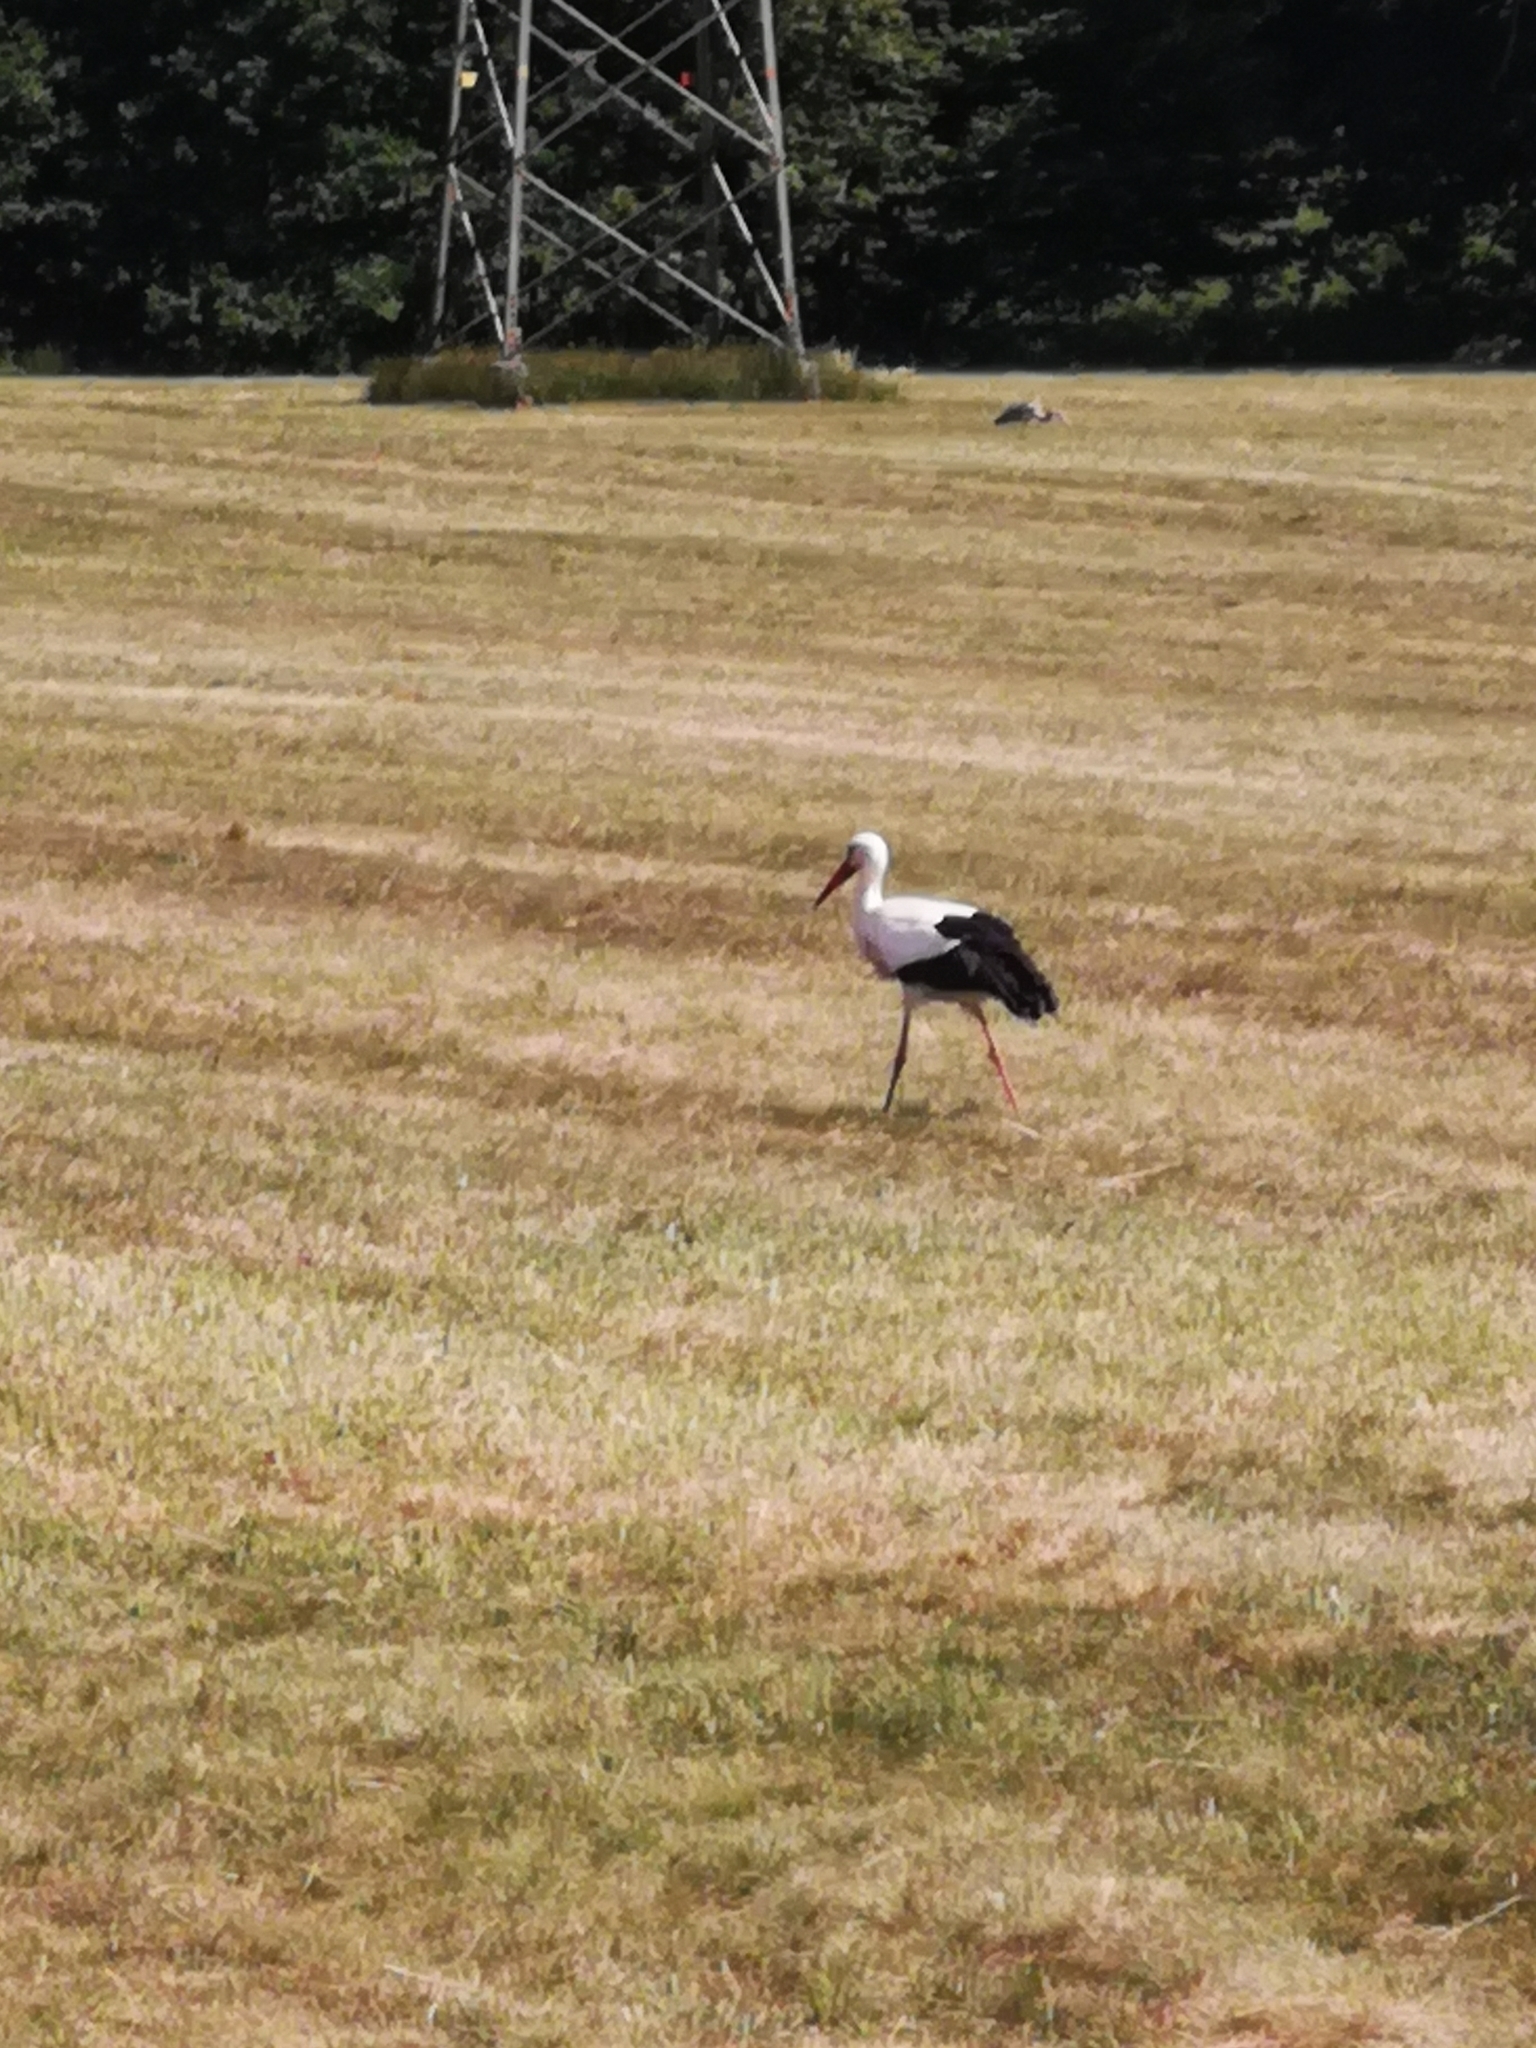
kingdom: Animalia
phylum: Chordata
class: Aves
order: Ciconiiformes
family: Ciconiidae
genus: Ciconia
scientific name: Ciconia ciconia
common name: White stork
